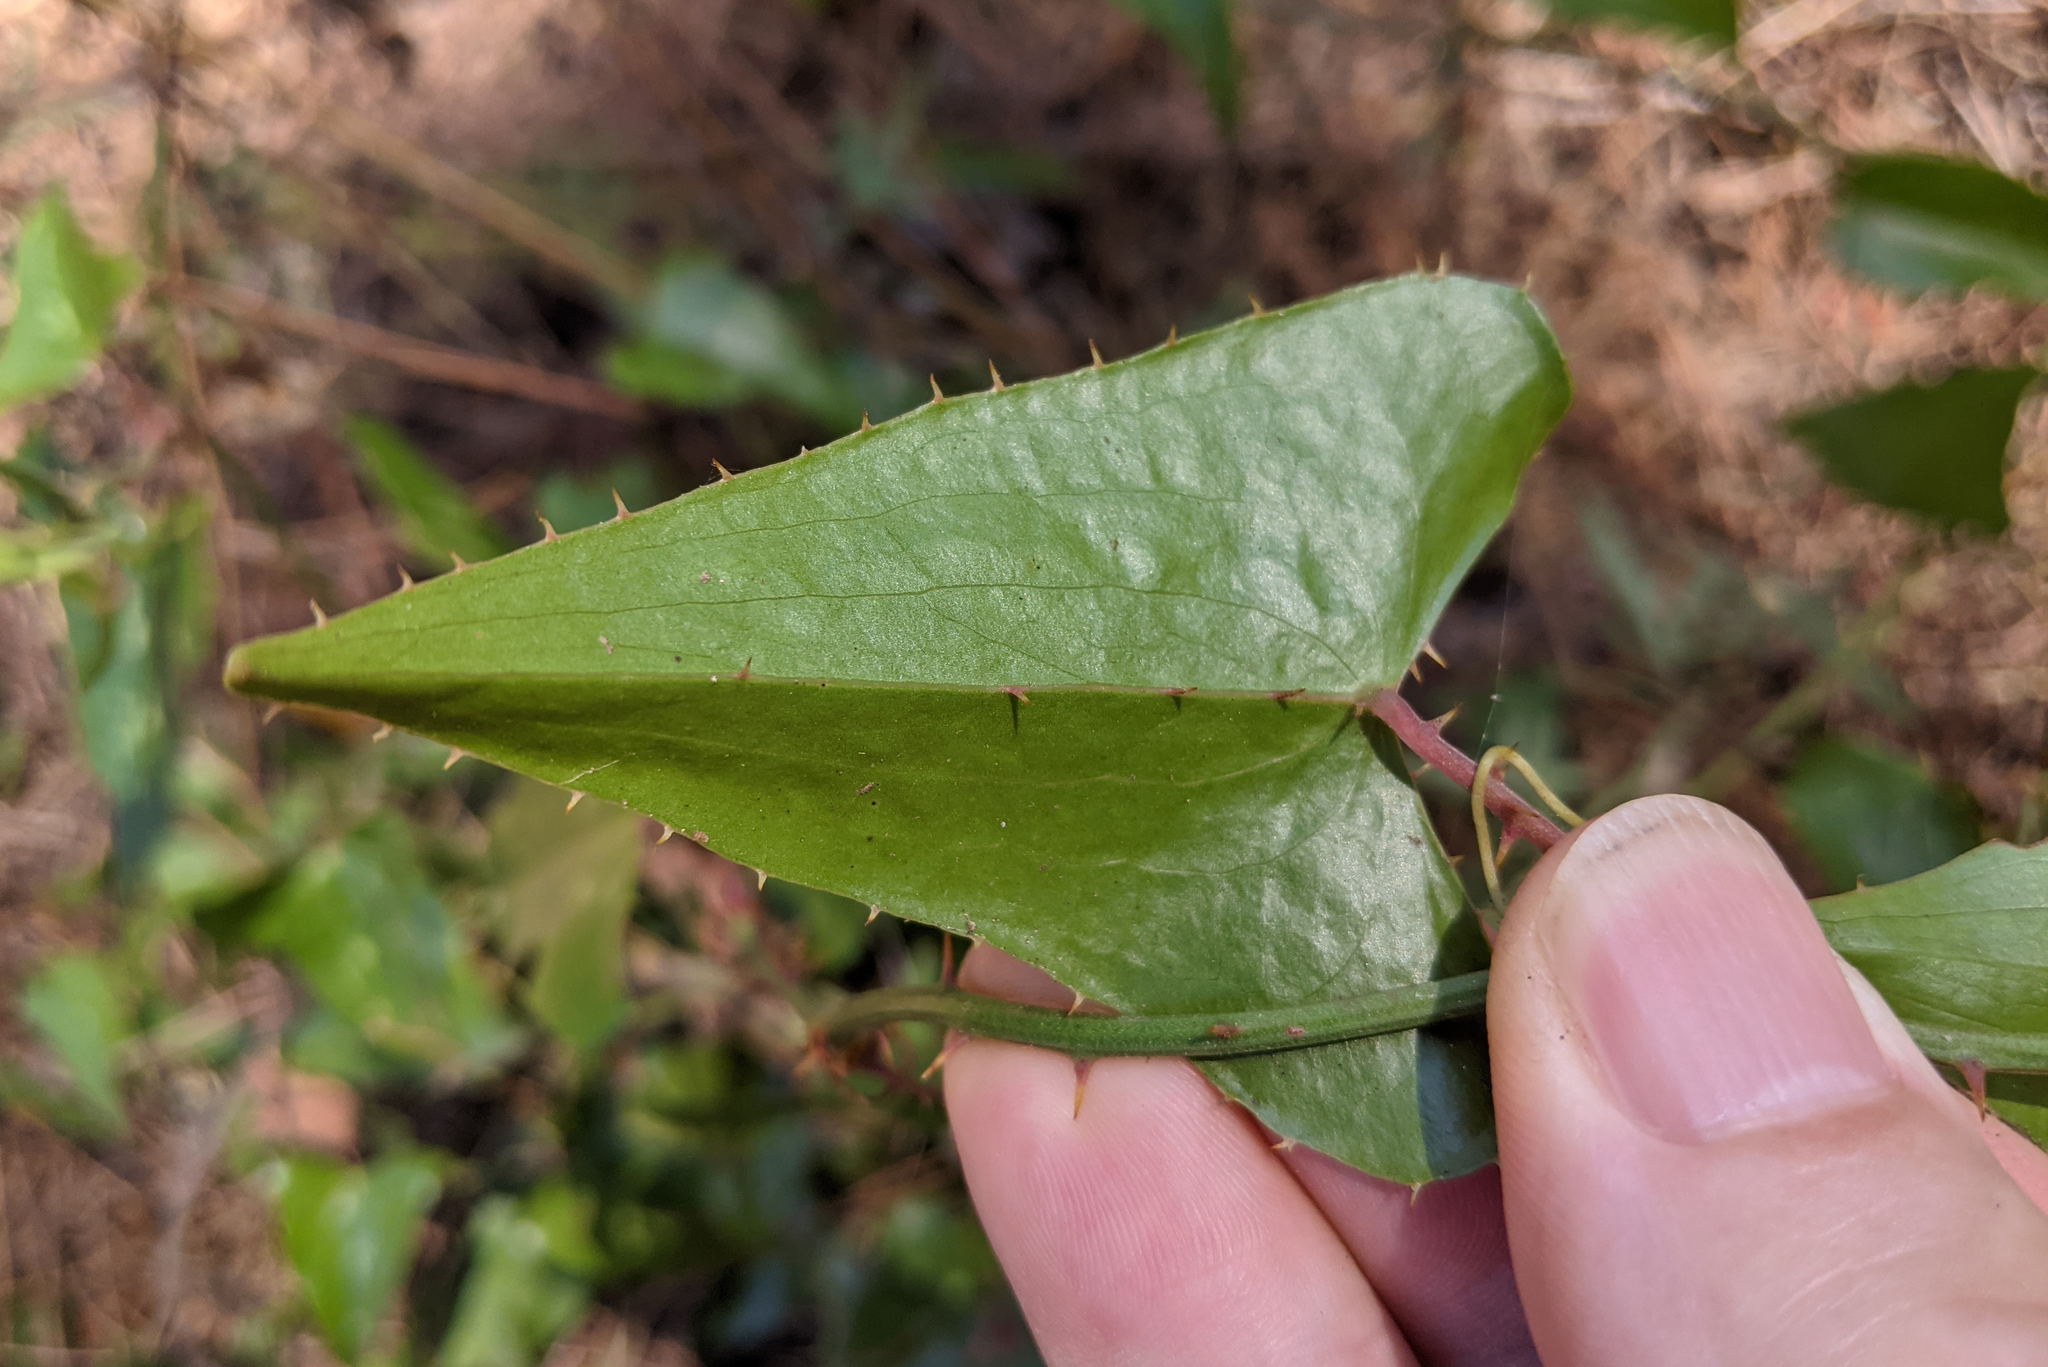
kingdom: Plantae
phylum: Tracheophyta
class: Liliopsida
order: Liliales
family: Smilacaceae
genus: Smilax
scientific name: Smilax aspera
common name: Common smilax
